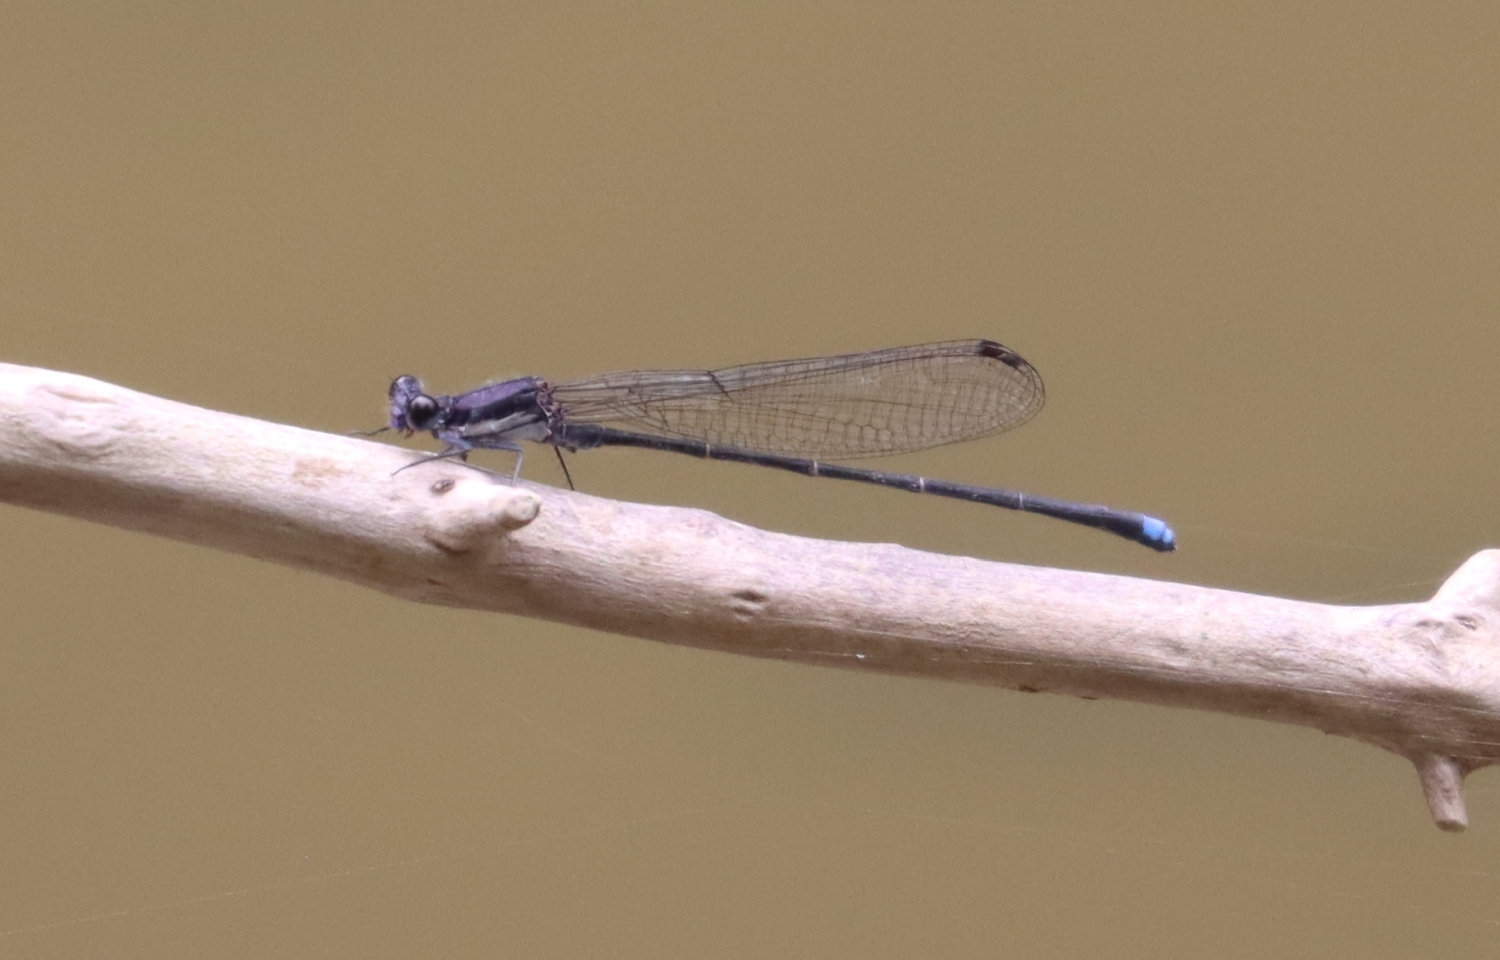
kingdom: Animalia
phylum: Arthropoda
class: Insecta
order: Odonata
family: Coenagrionidae
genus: Argia
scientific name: Argia tibialis
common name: Blue-tipped dancer
